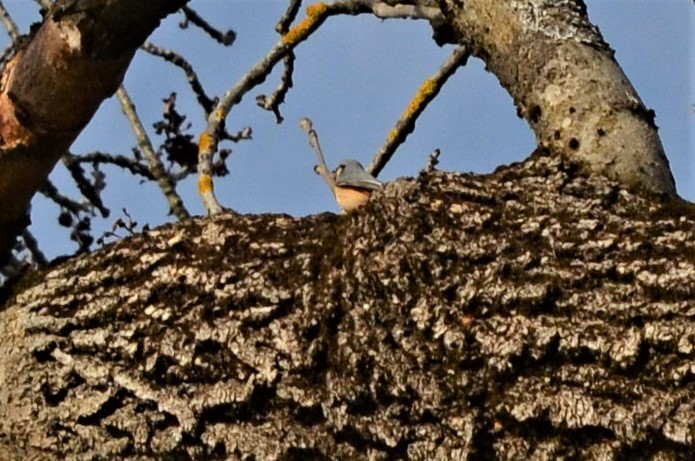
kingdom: Animalia
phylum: Chordata
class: Aves
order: Passeriformes
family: Sittidae
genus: Sitta
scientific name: Sitta europaea
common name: Eurasian nuthatch
